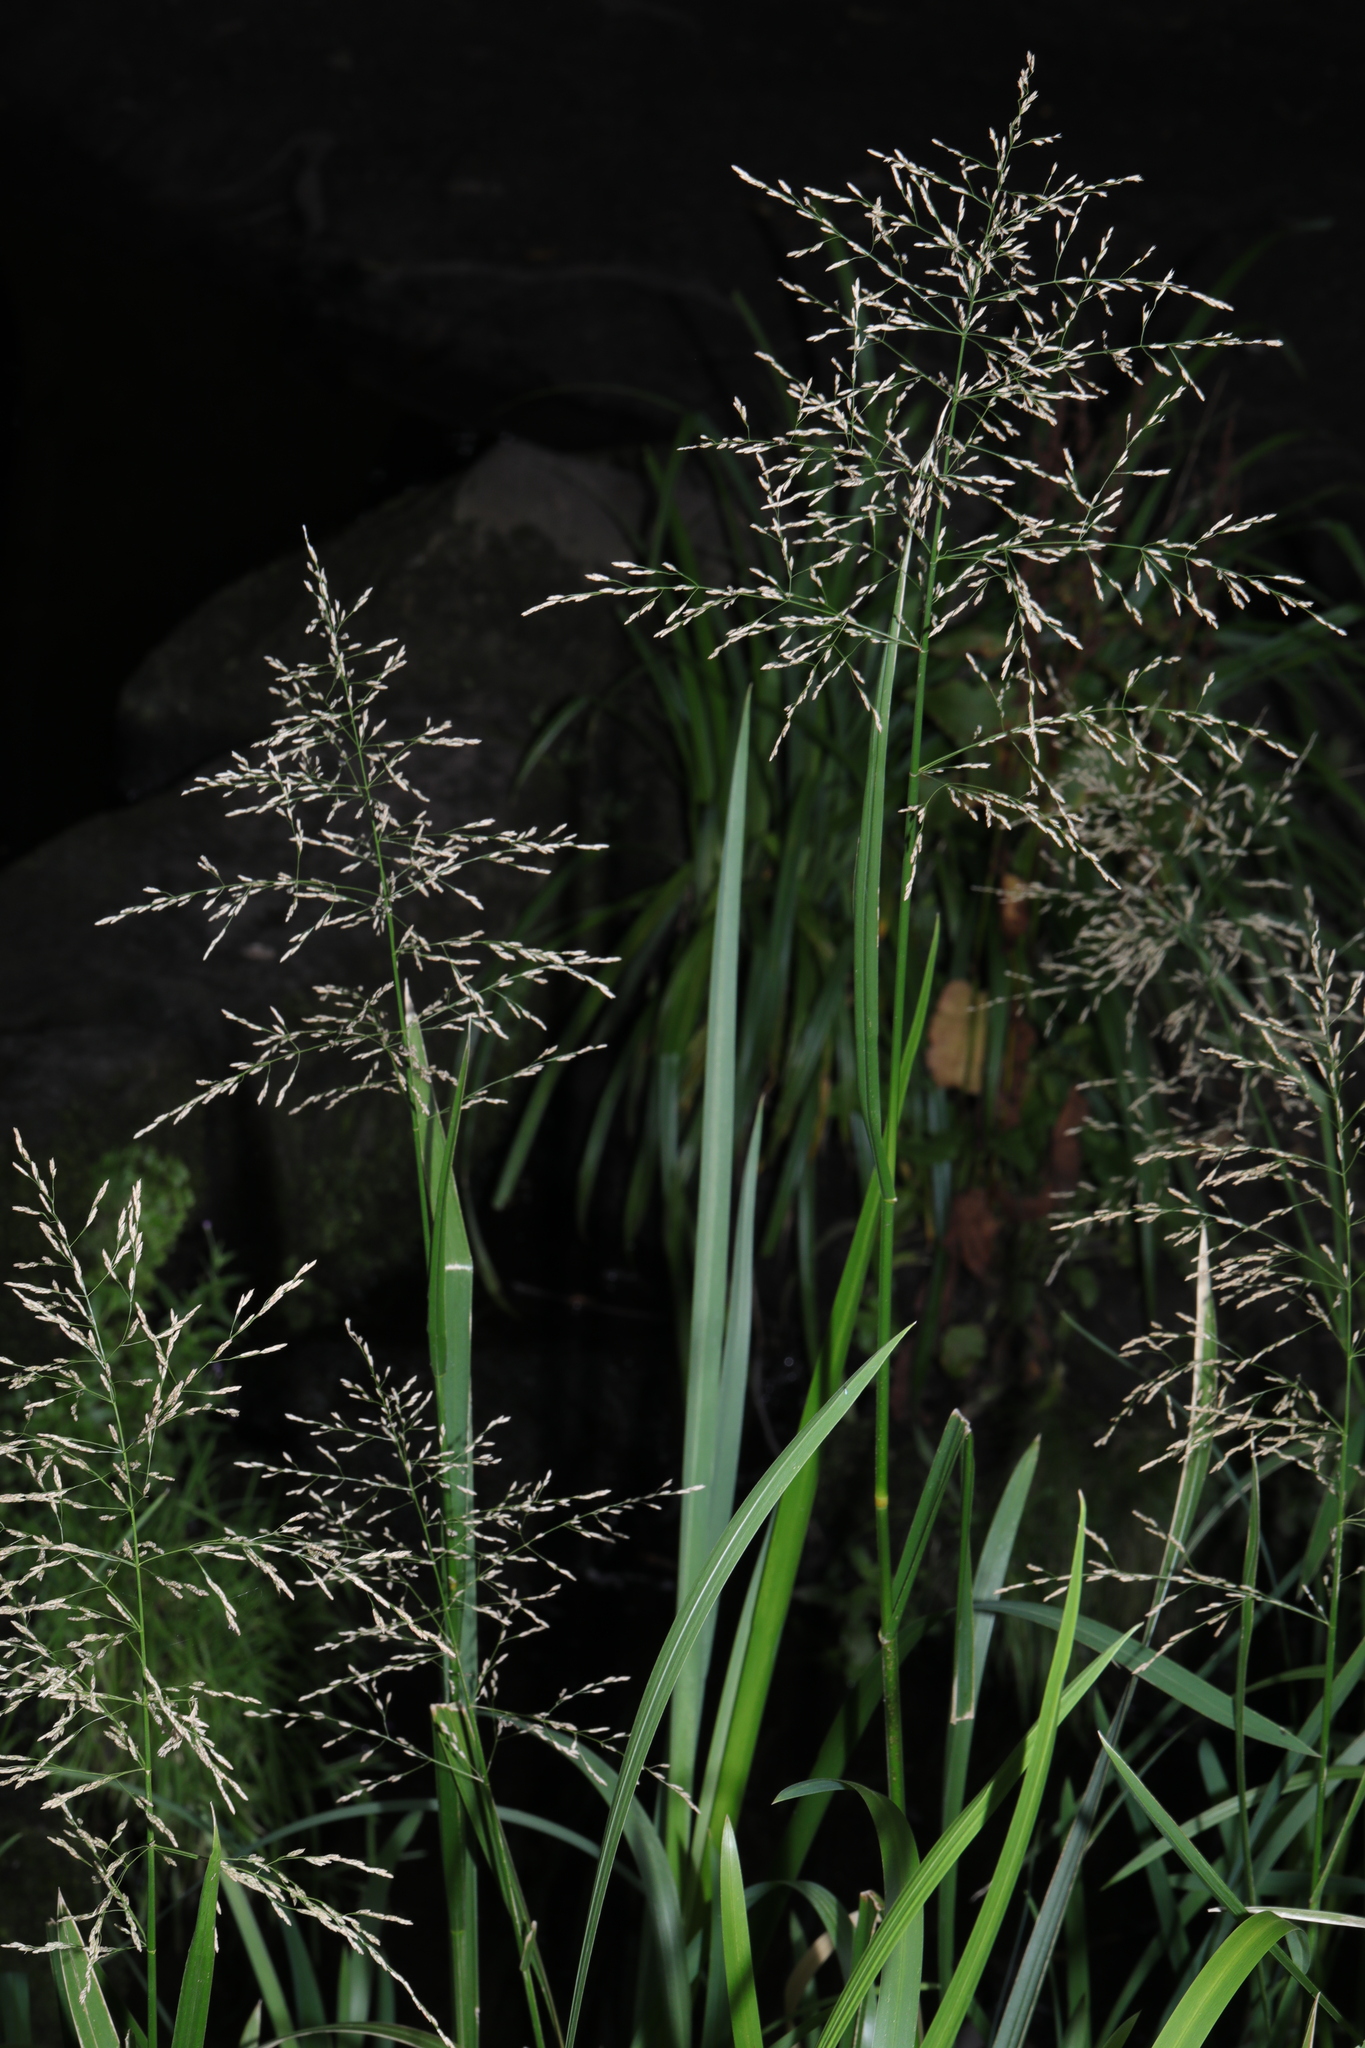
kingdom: Plantae
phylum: Tracheophyta
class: Liliopsida
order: Poales
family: Poaceae
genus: Glyceria
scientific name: Glyceria maxima
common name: Reed mannagrass
